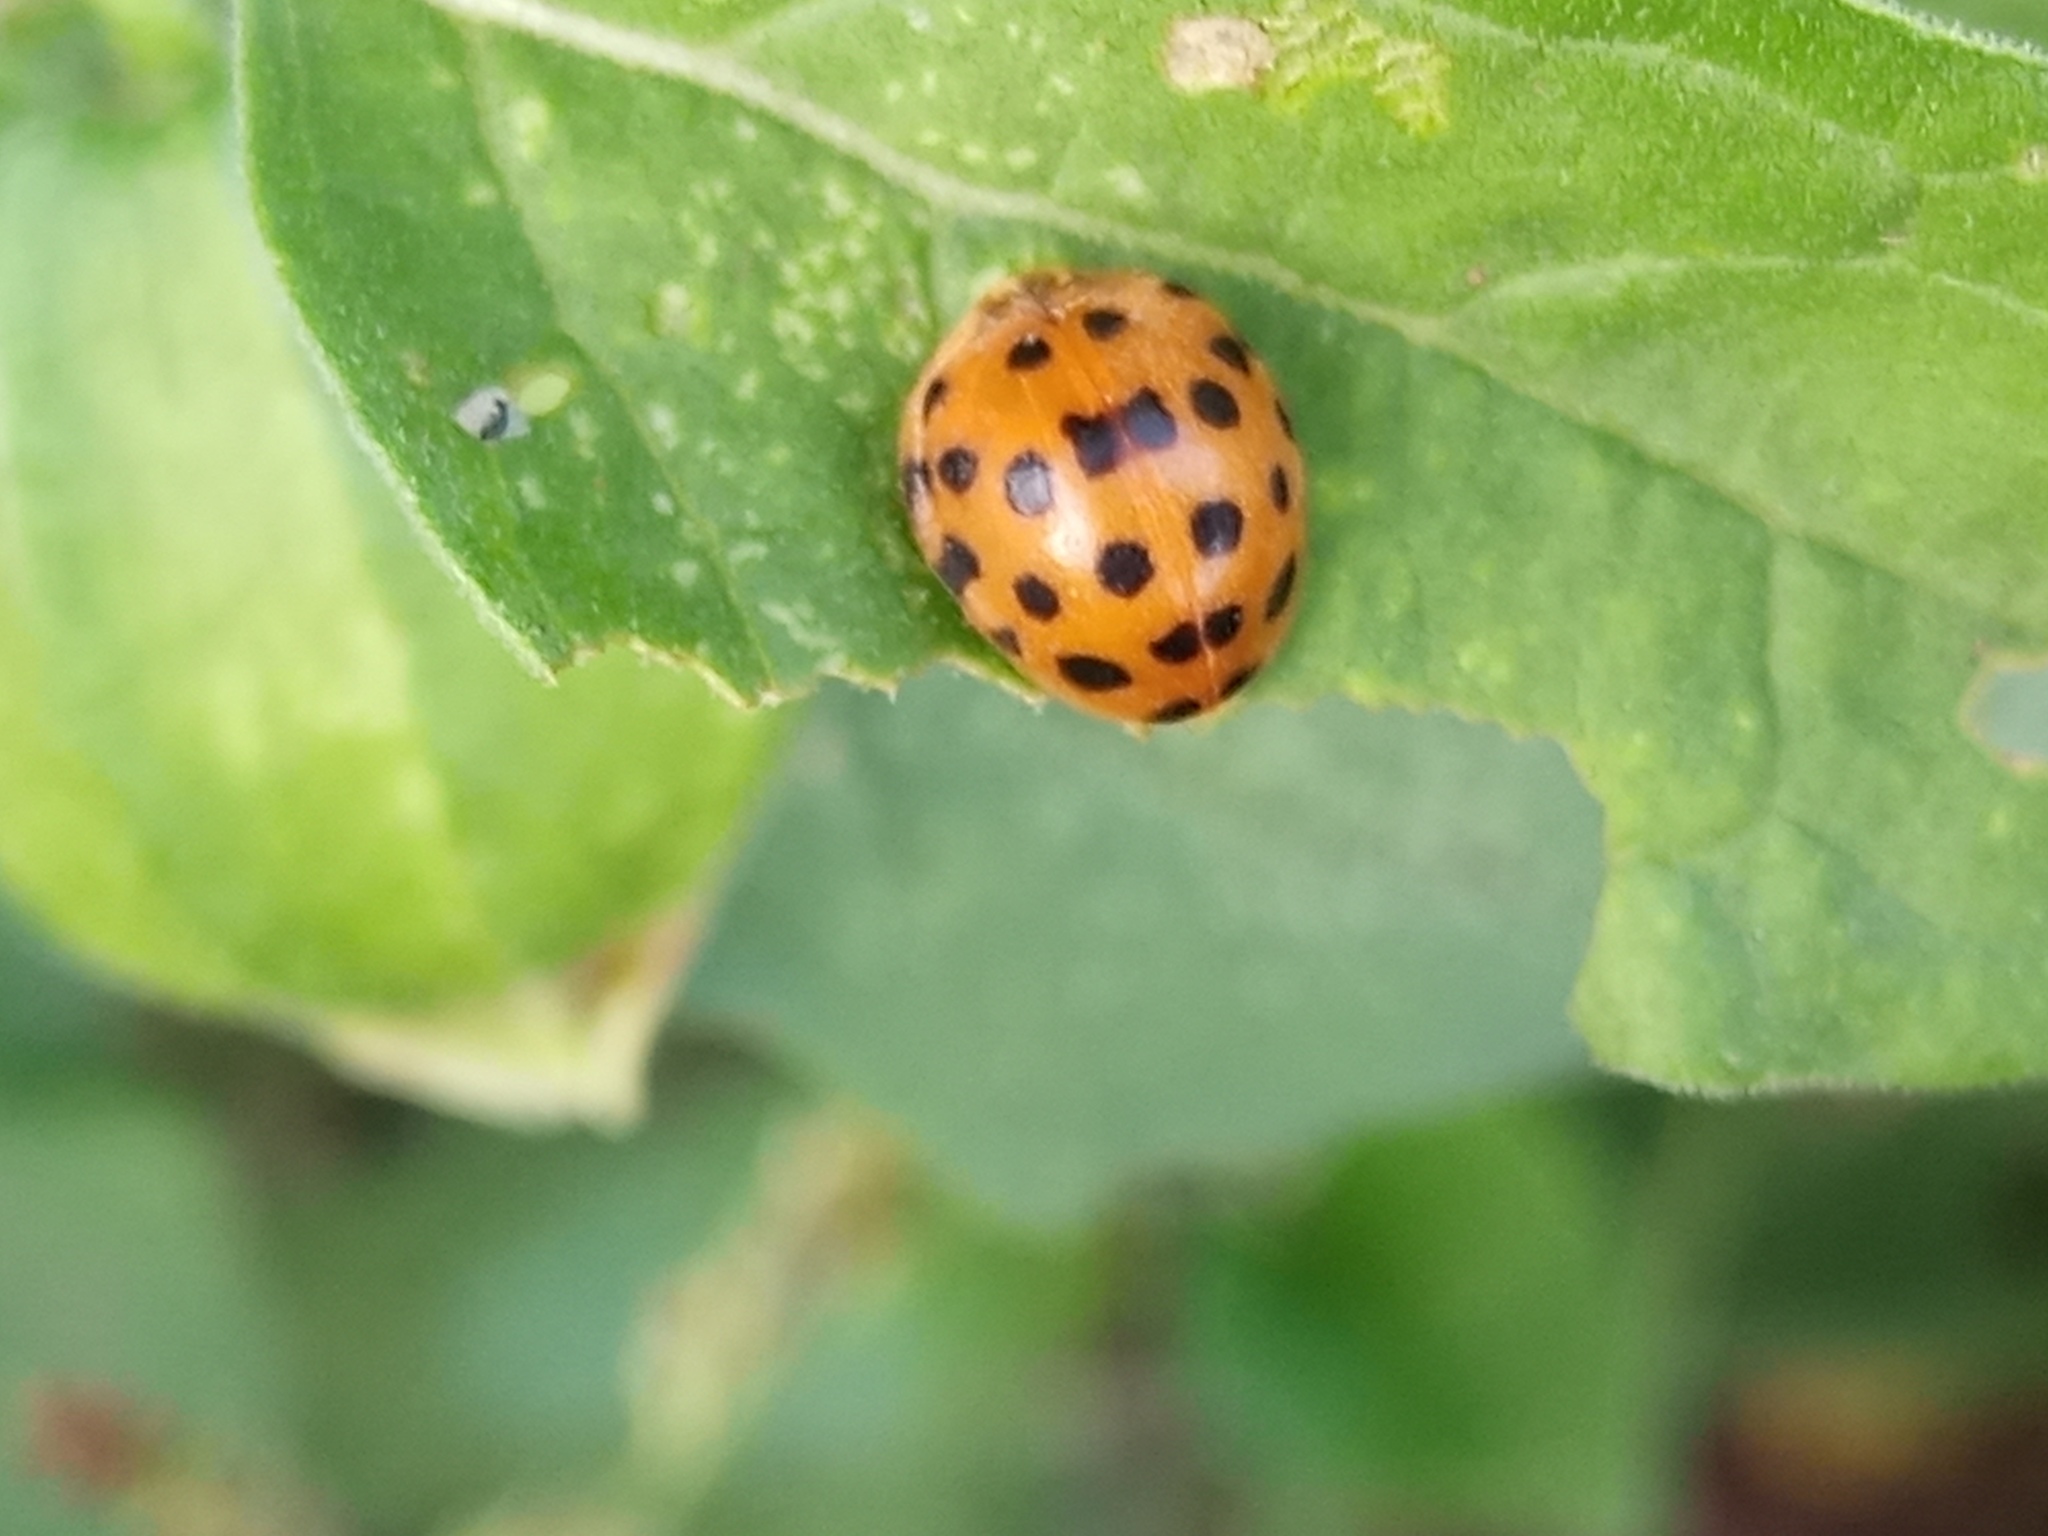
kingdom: Animalia
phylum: Arthropoda
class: Insecta
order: Coleoptera
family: Coccinellidae
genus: Henosepilachna
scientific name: Henosepilachna vigintioctopunctata
